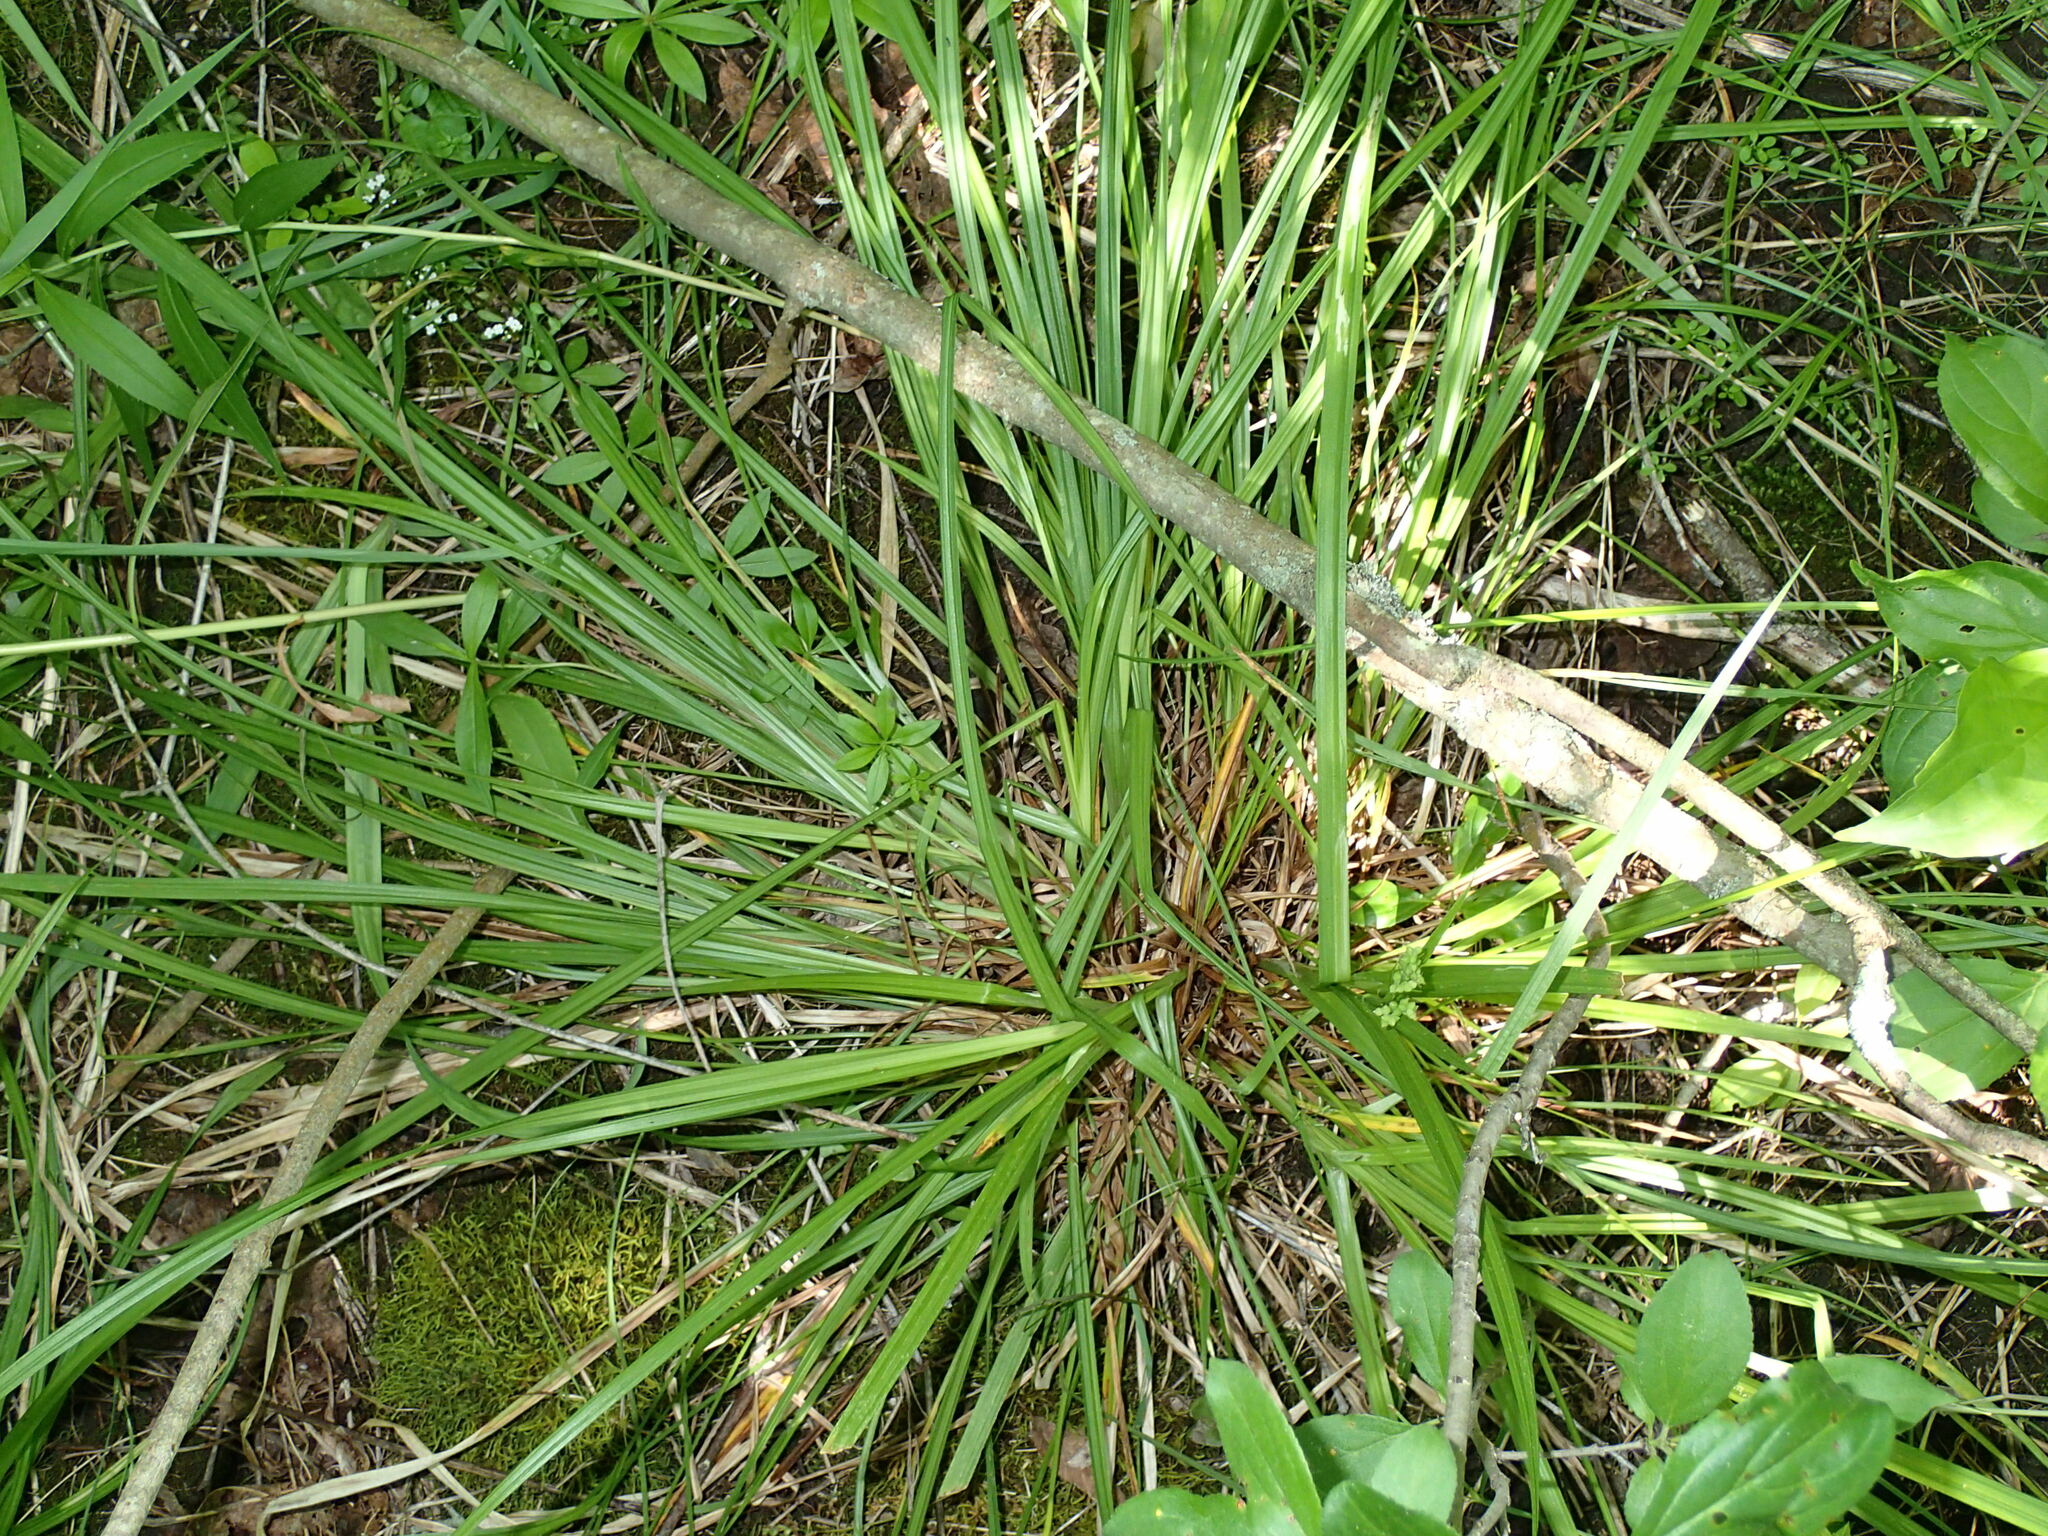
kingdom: Plantae
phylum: Tracheophyta
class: Liliopsida
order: Poales
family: Cyperaceae
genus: Carex
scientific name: Carex oligocarpa
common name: Eastern few-fruited sedge
